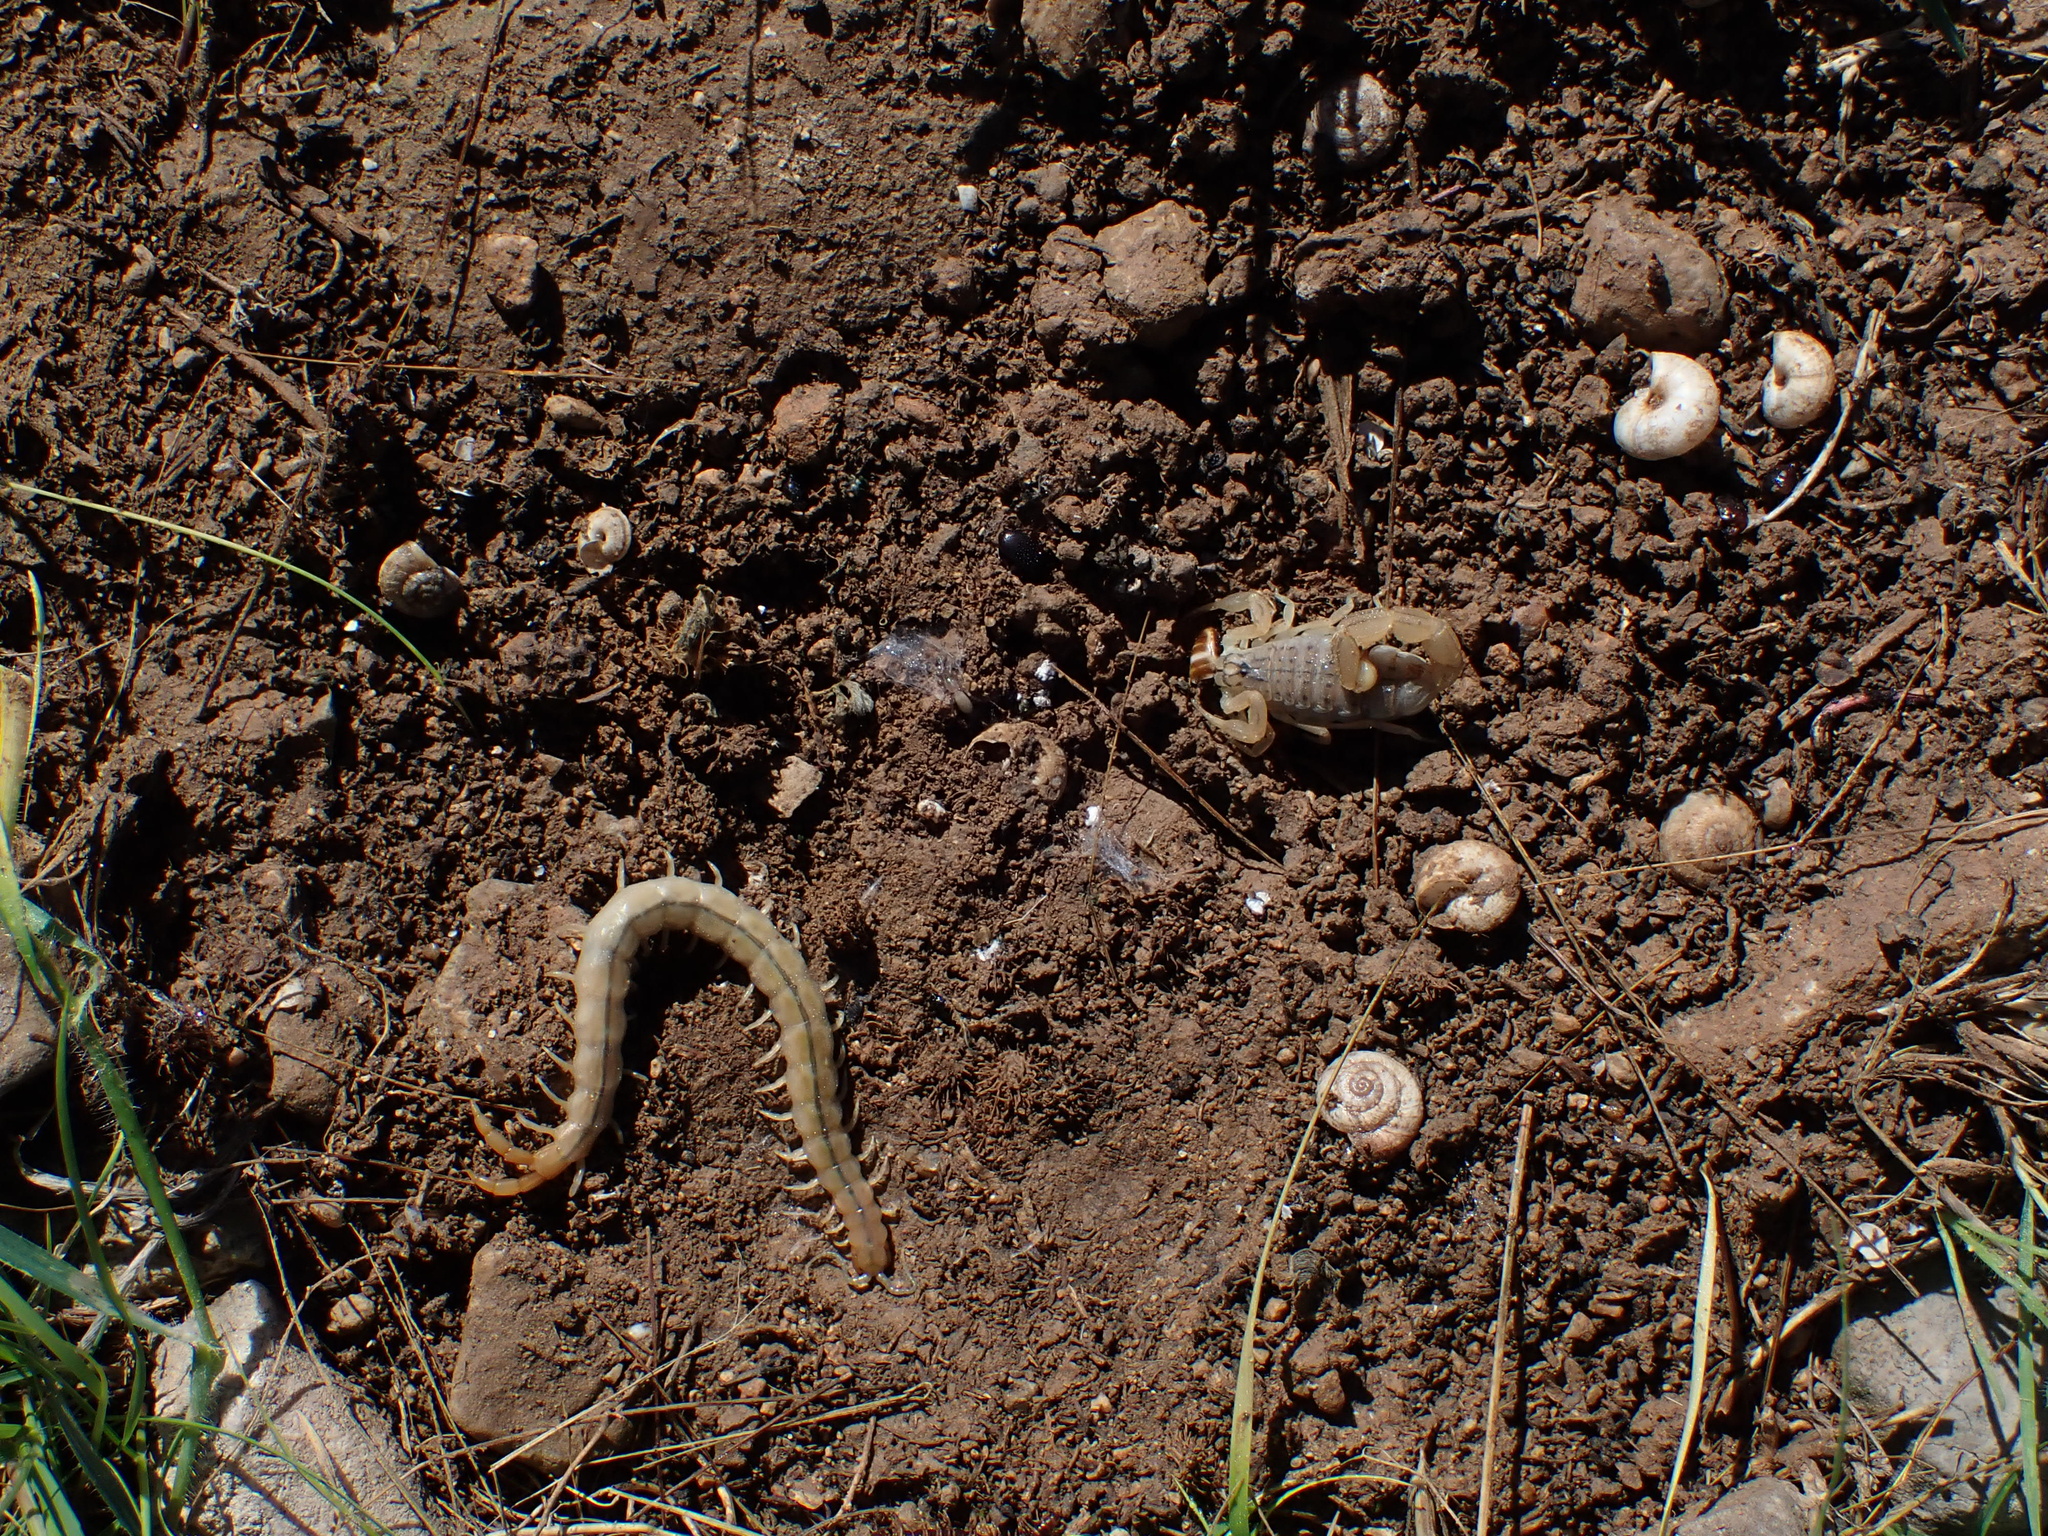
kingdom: Animalia
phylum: Arthropoda
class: Arachnida
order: Scorpiones
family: Buthidae
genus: Mesobuthus
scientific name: Mesobuthus phillipsi
